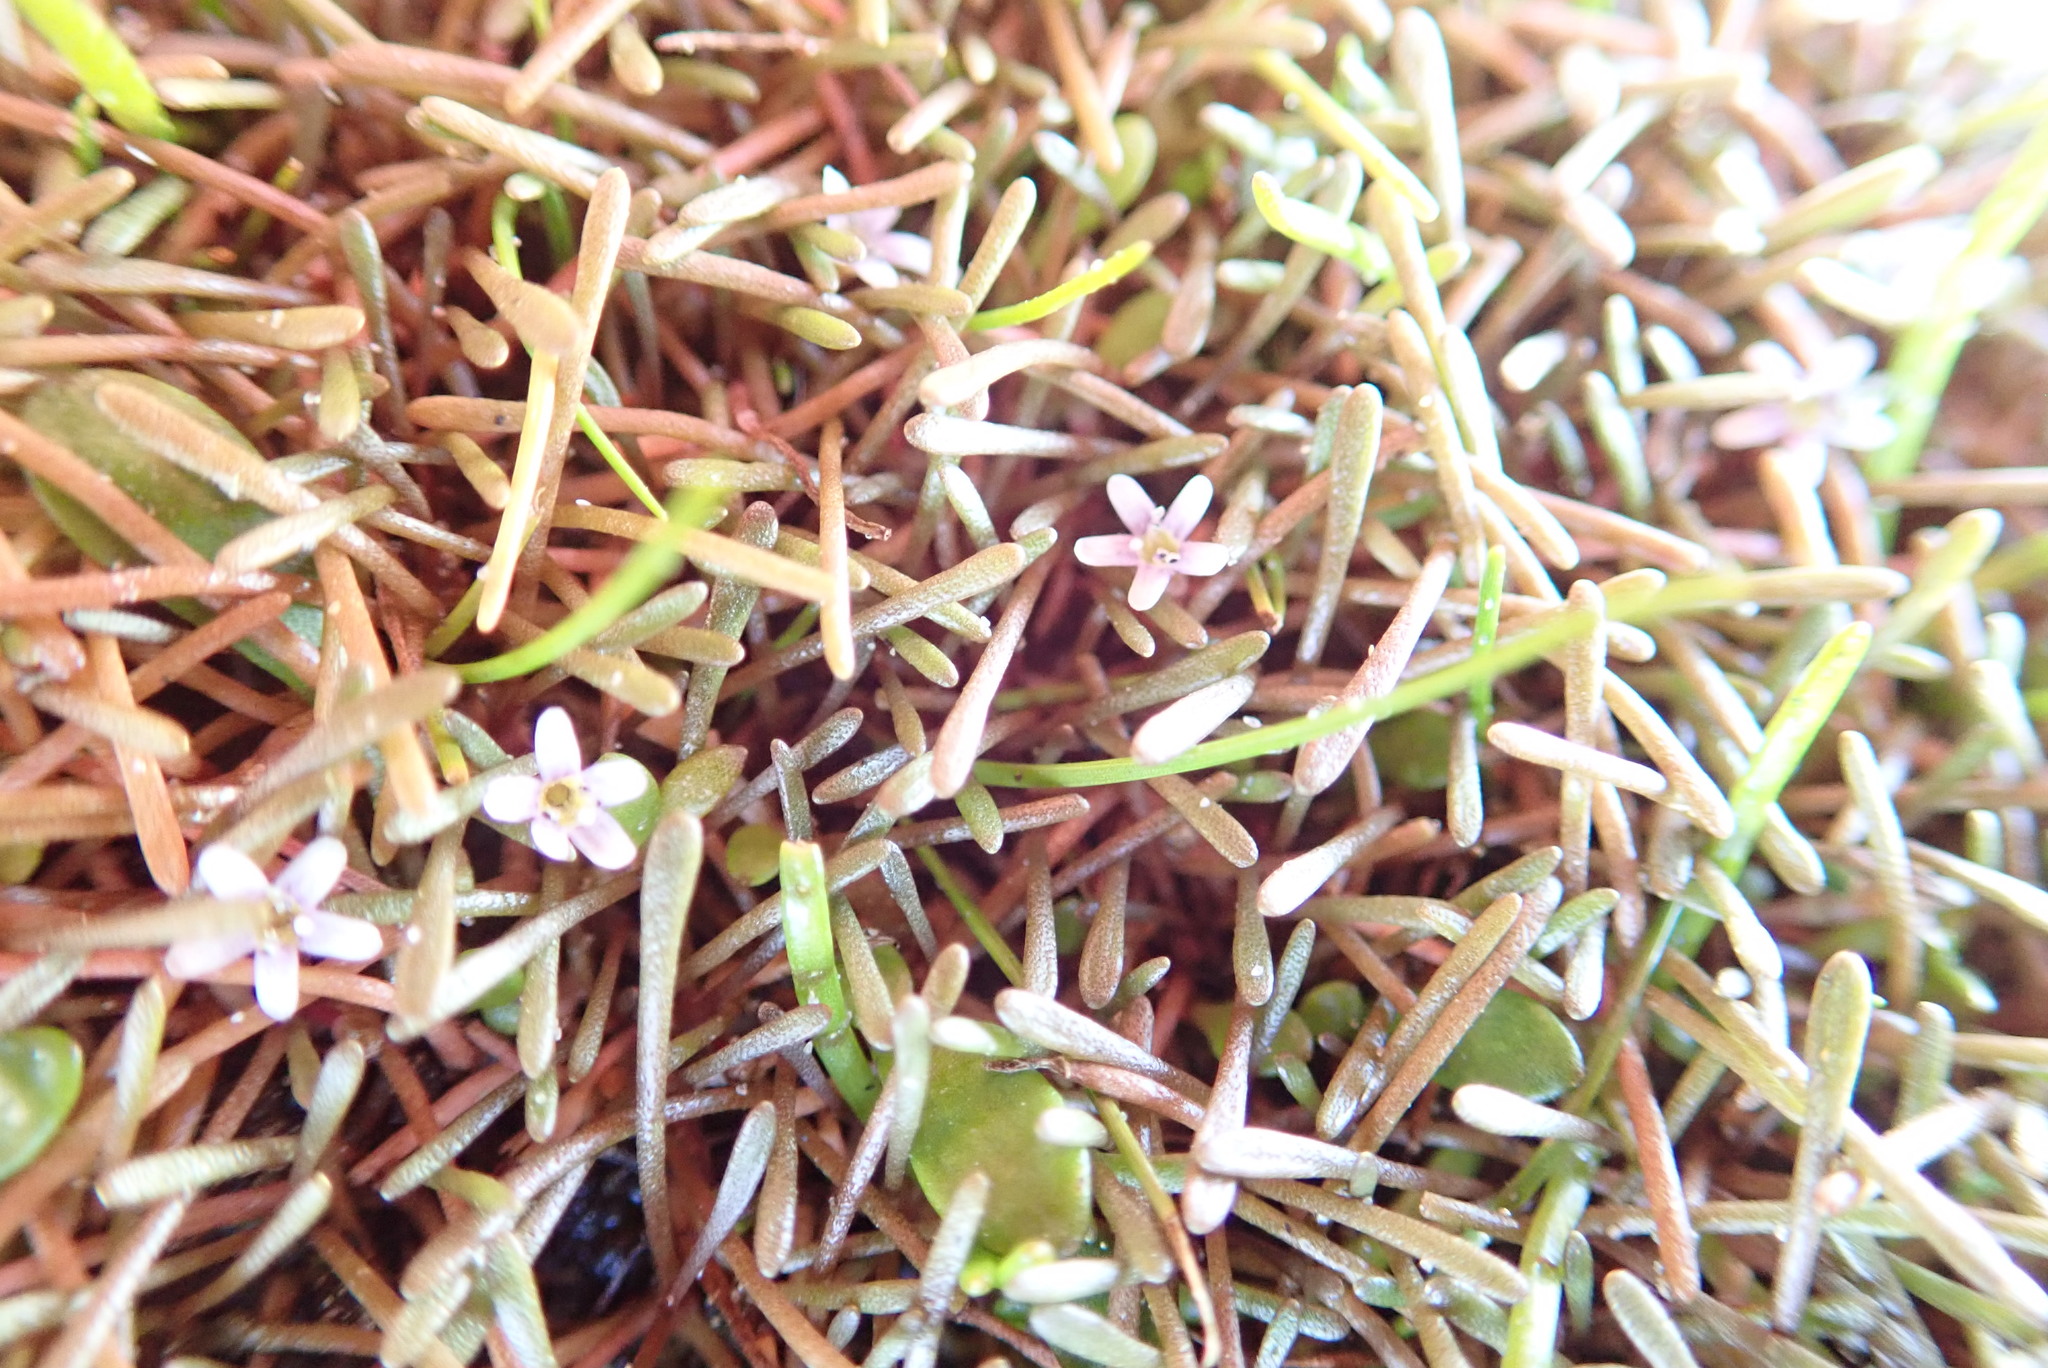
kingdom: Plantae
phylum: Tracheophyta
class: Magnoliopsida
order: Lamiales
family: Scrophulariaceae
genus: Limosella
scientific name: Limosella australis
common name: Welsh mudwort
